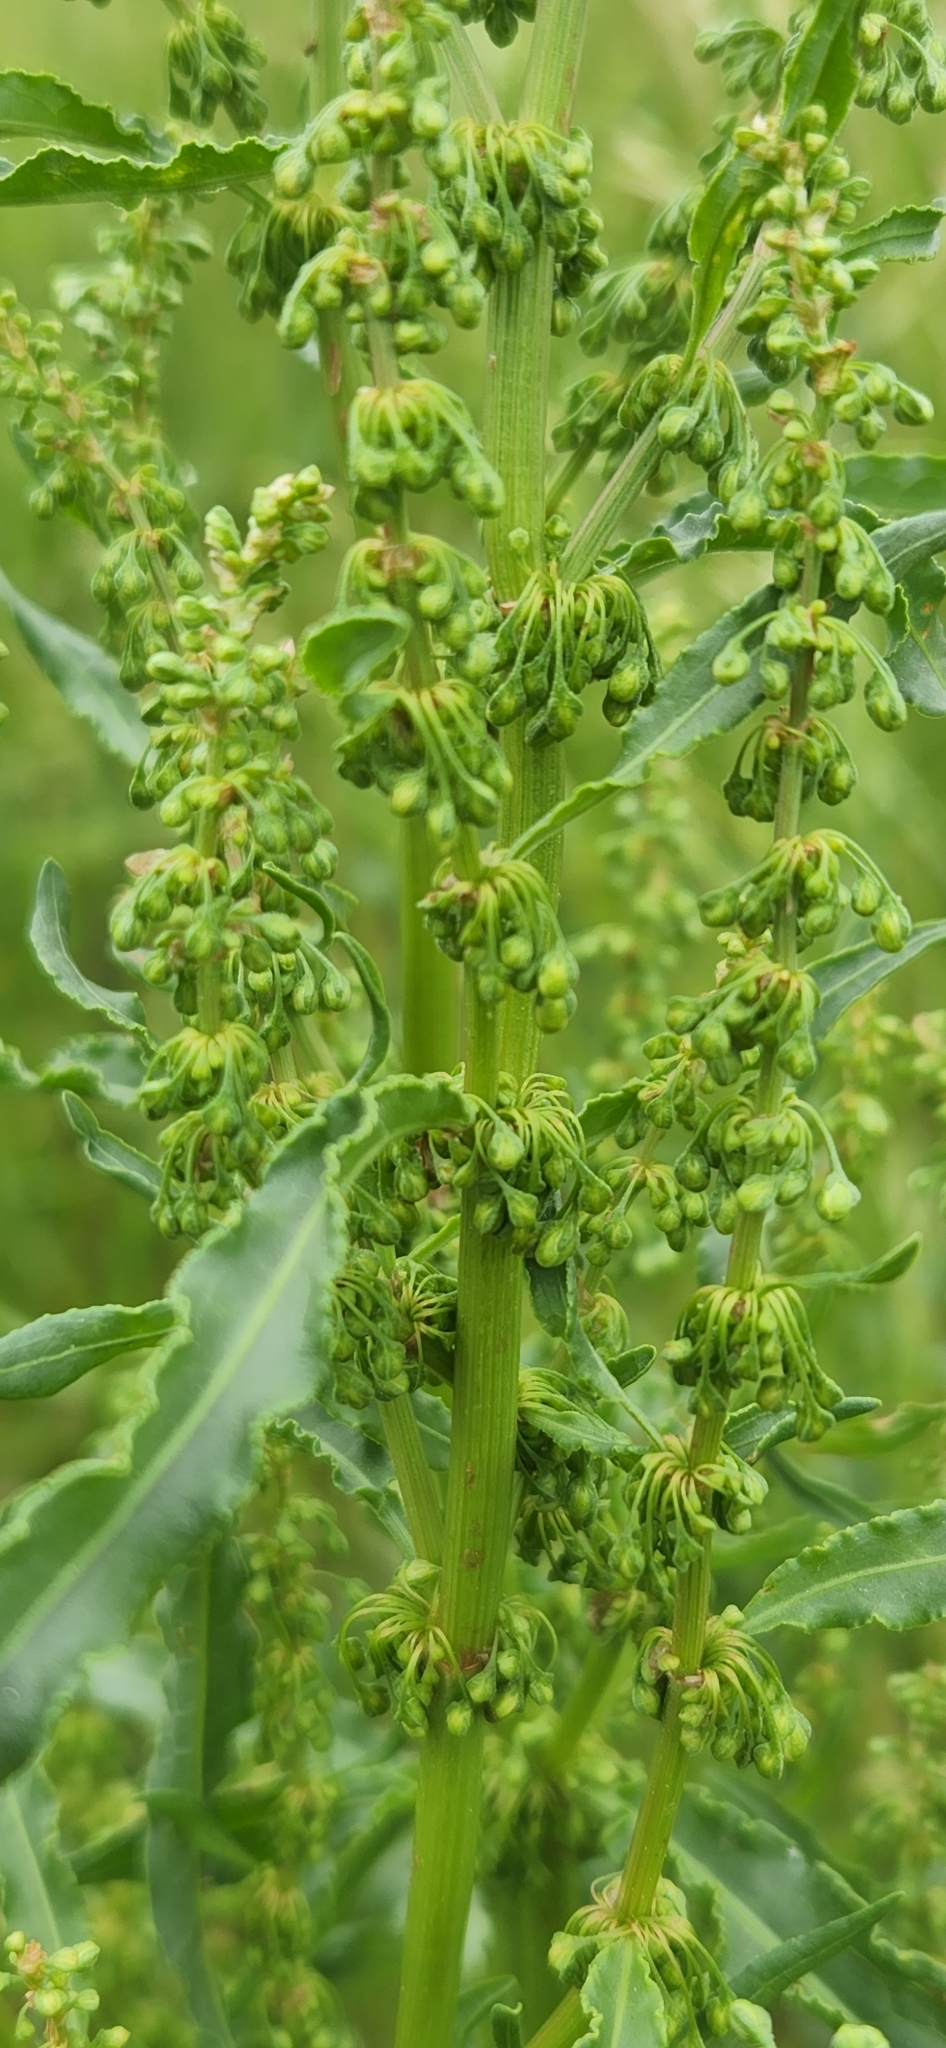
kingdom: Plantae
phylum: Tracheophyta
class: Magnoliopsida
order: Caryophyllales
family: Polygonaceae
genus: Rumex
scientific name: Rumex crispus
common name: Curled dock
